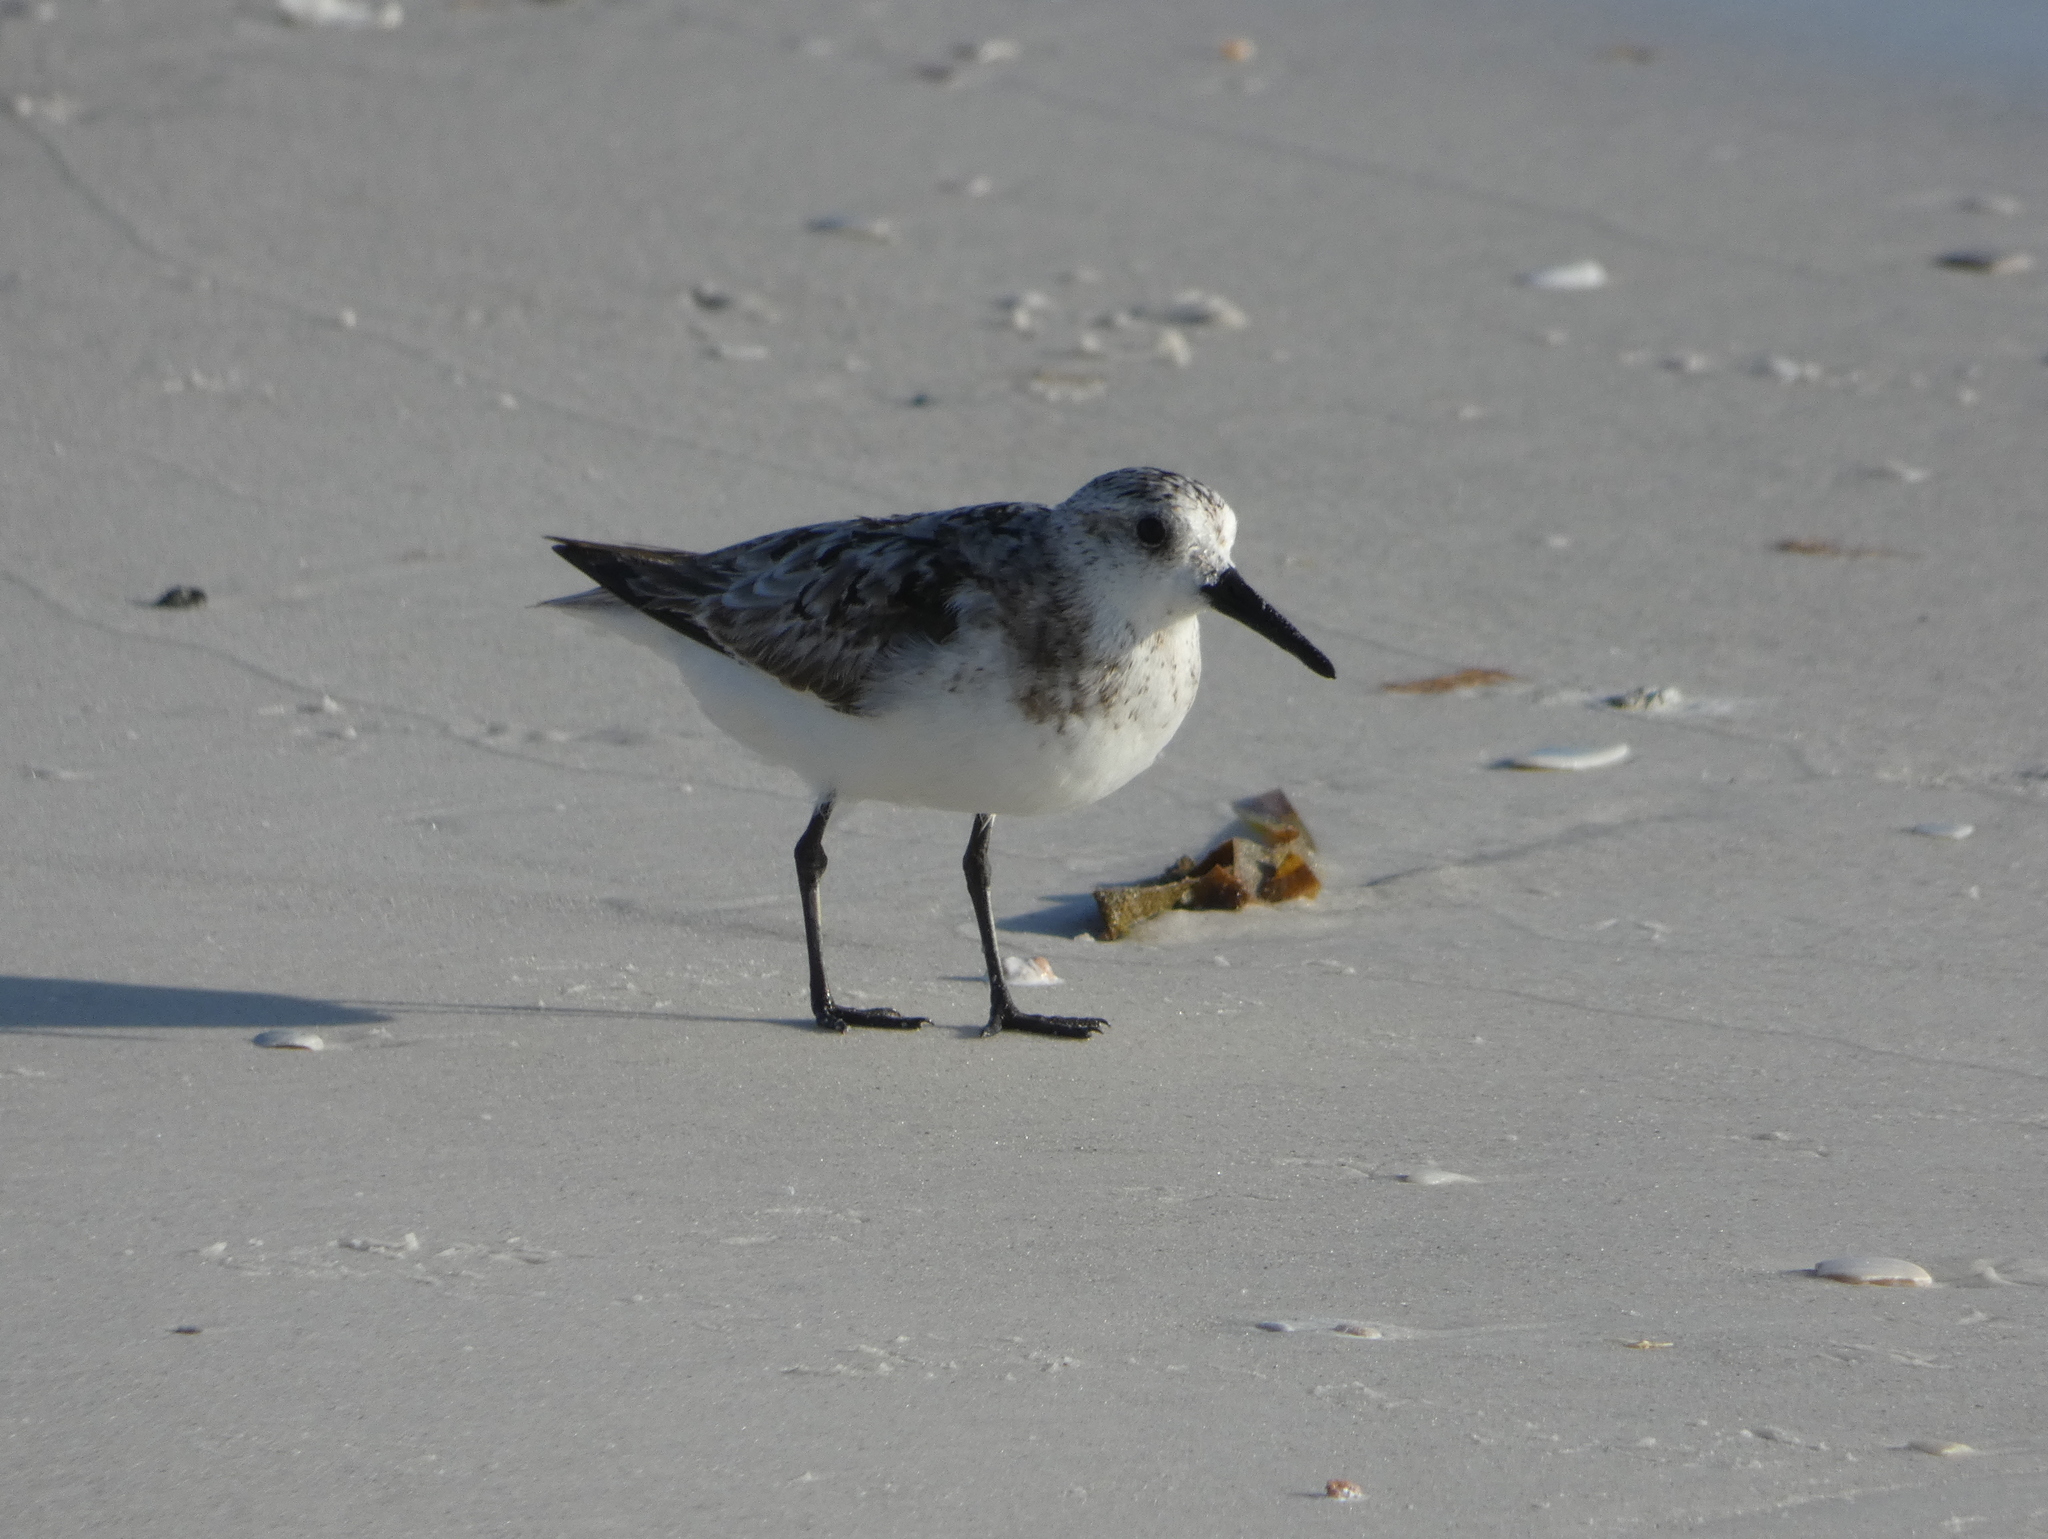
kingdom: Animalia
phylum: Chordata
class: Aves
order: Charadriiformes
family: Scolopacidae
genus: Calidris
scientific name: Calidris alba
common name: Sanderling
